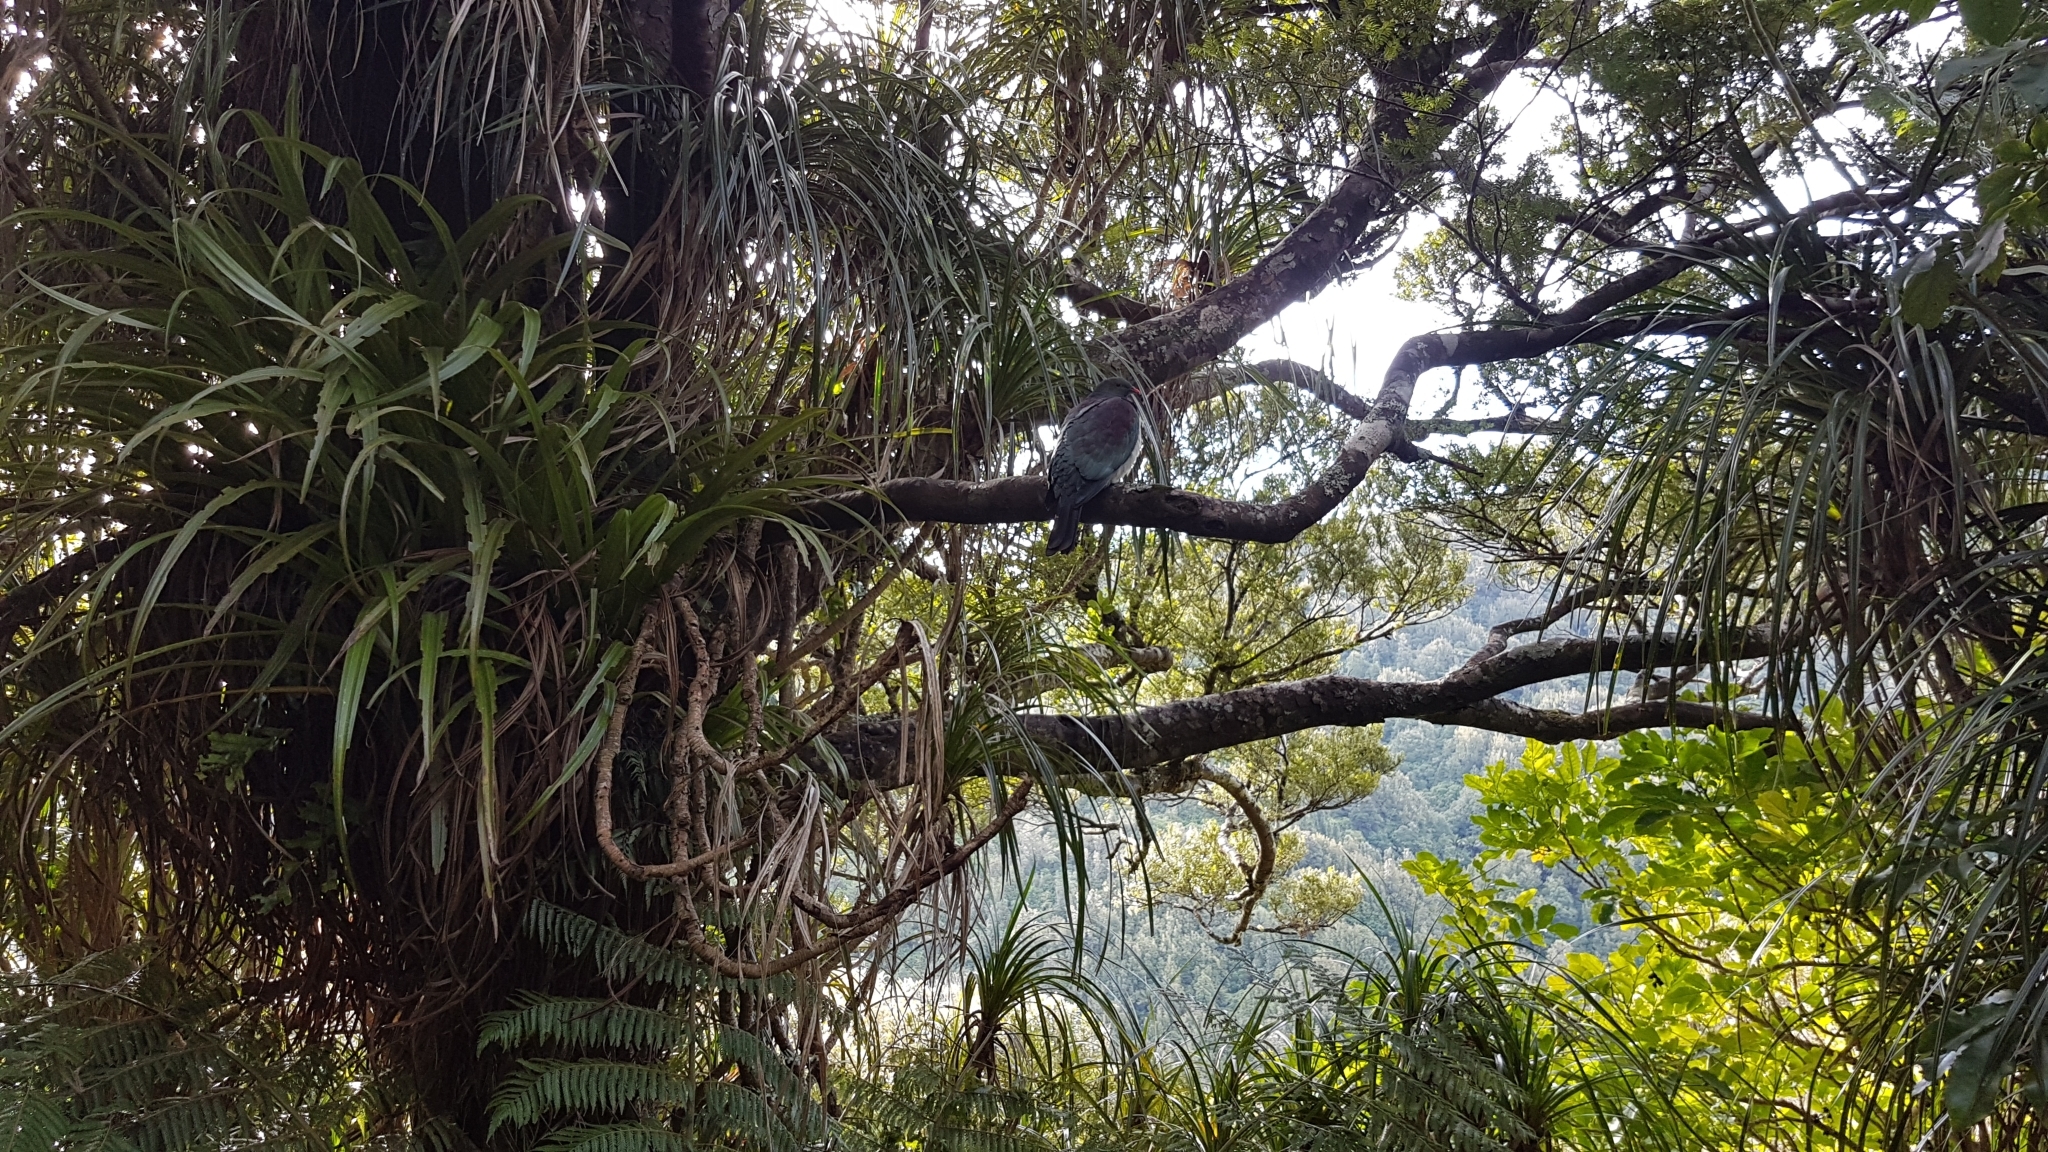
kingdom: Animalia
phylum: Chordata
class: Aves
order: Columbiformes
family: Columbidae
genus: Hemiphaga
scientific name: Hemiphaga novaeseelandiae
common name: New zealand pigeon
